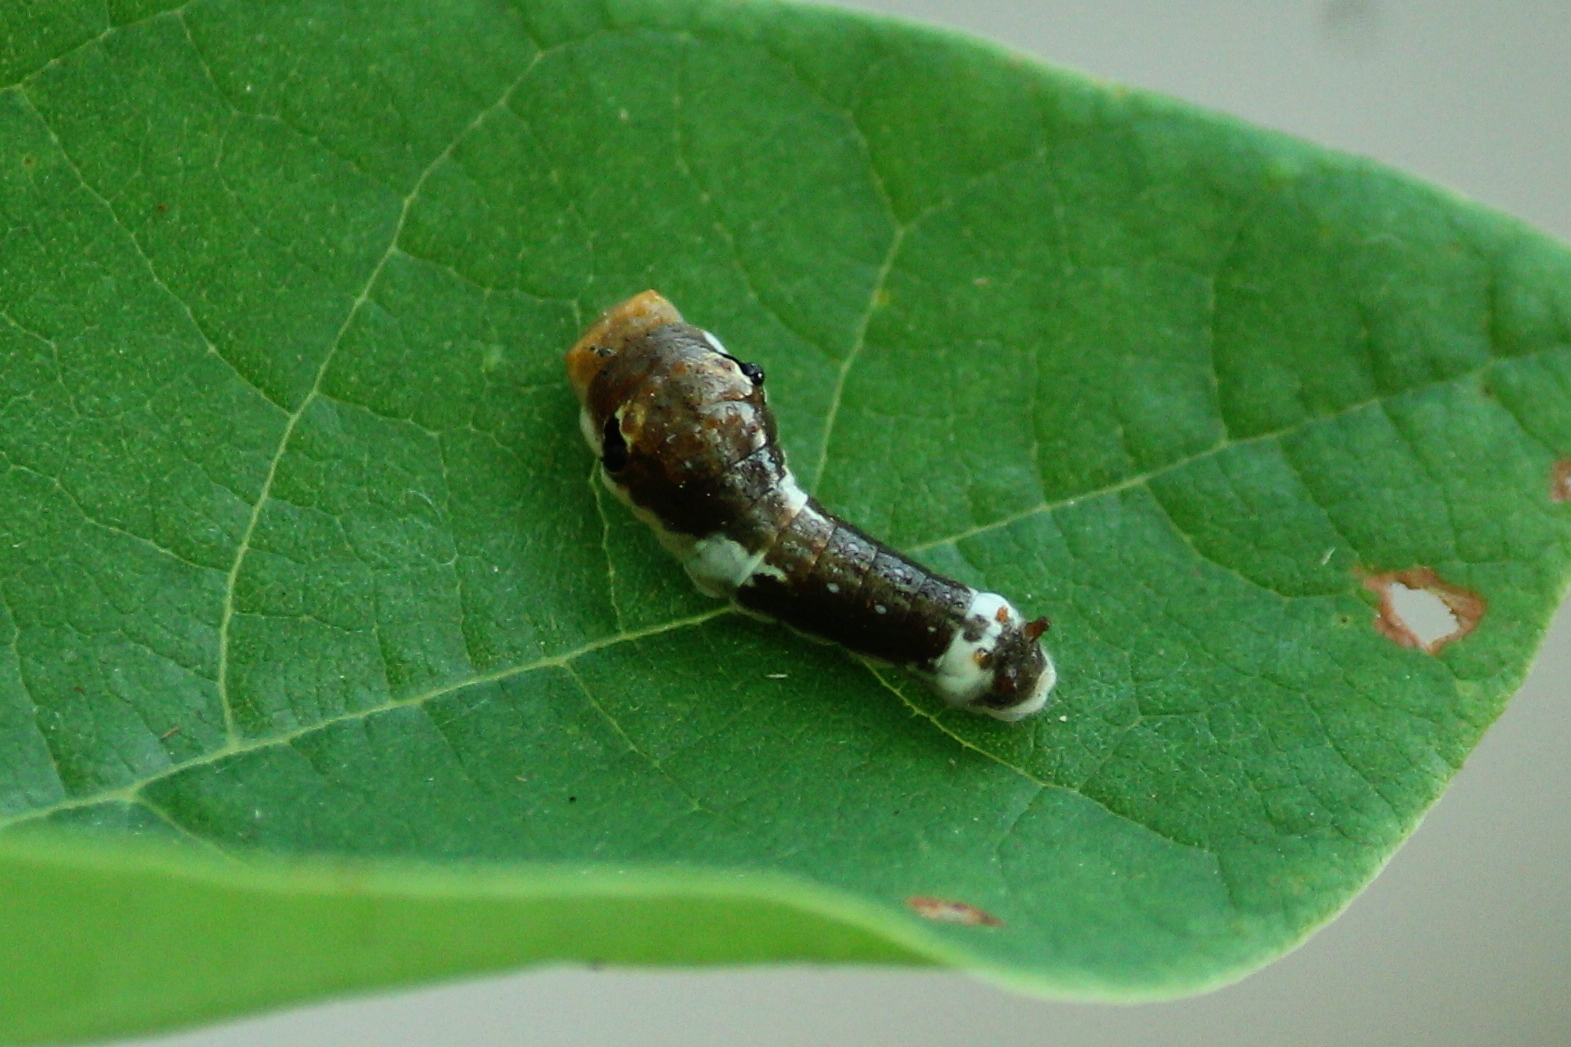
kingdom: Animalia
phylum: Arthropoda
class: Insecta
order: Lepidoptera
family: Papilionidae
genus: Papilio
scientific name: Papilio troilus
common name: Spicebush swallowtail
